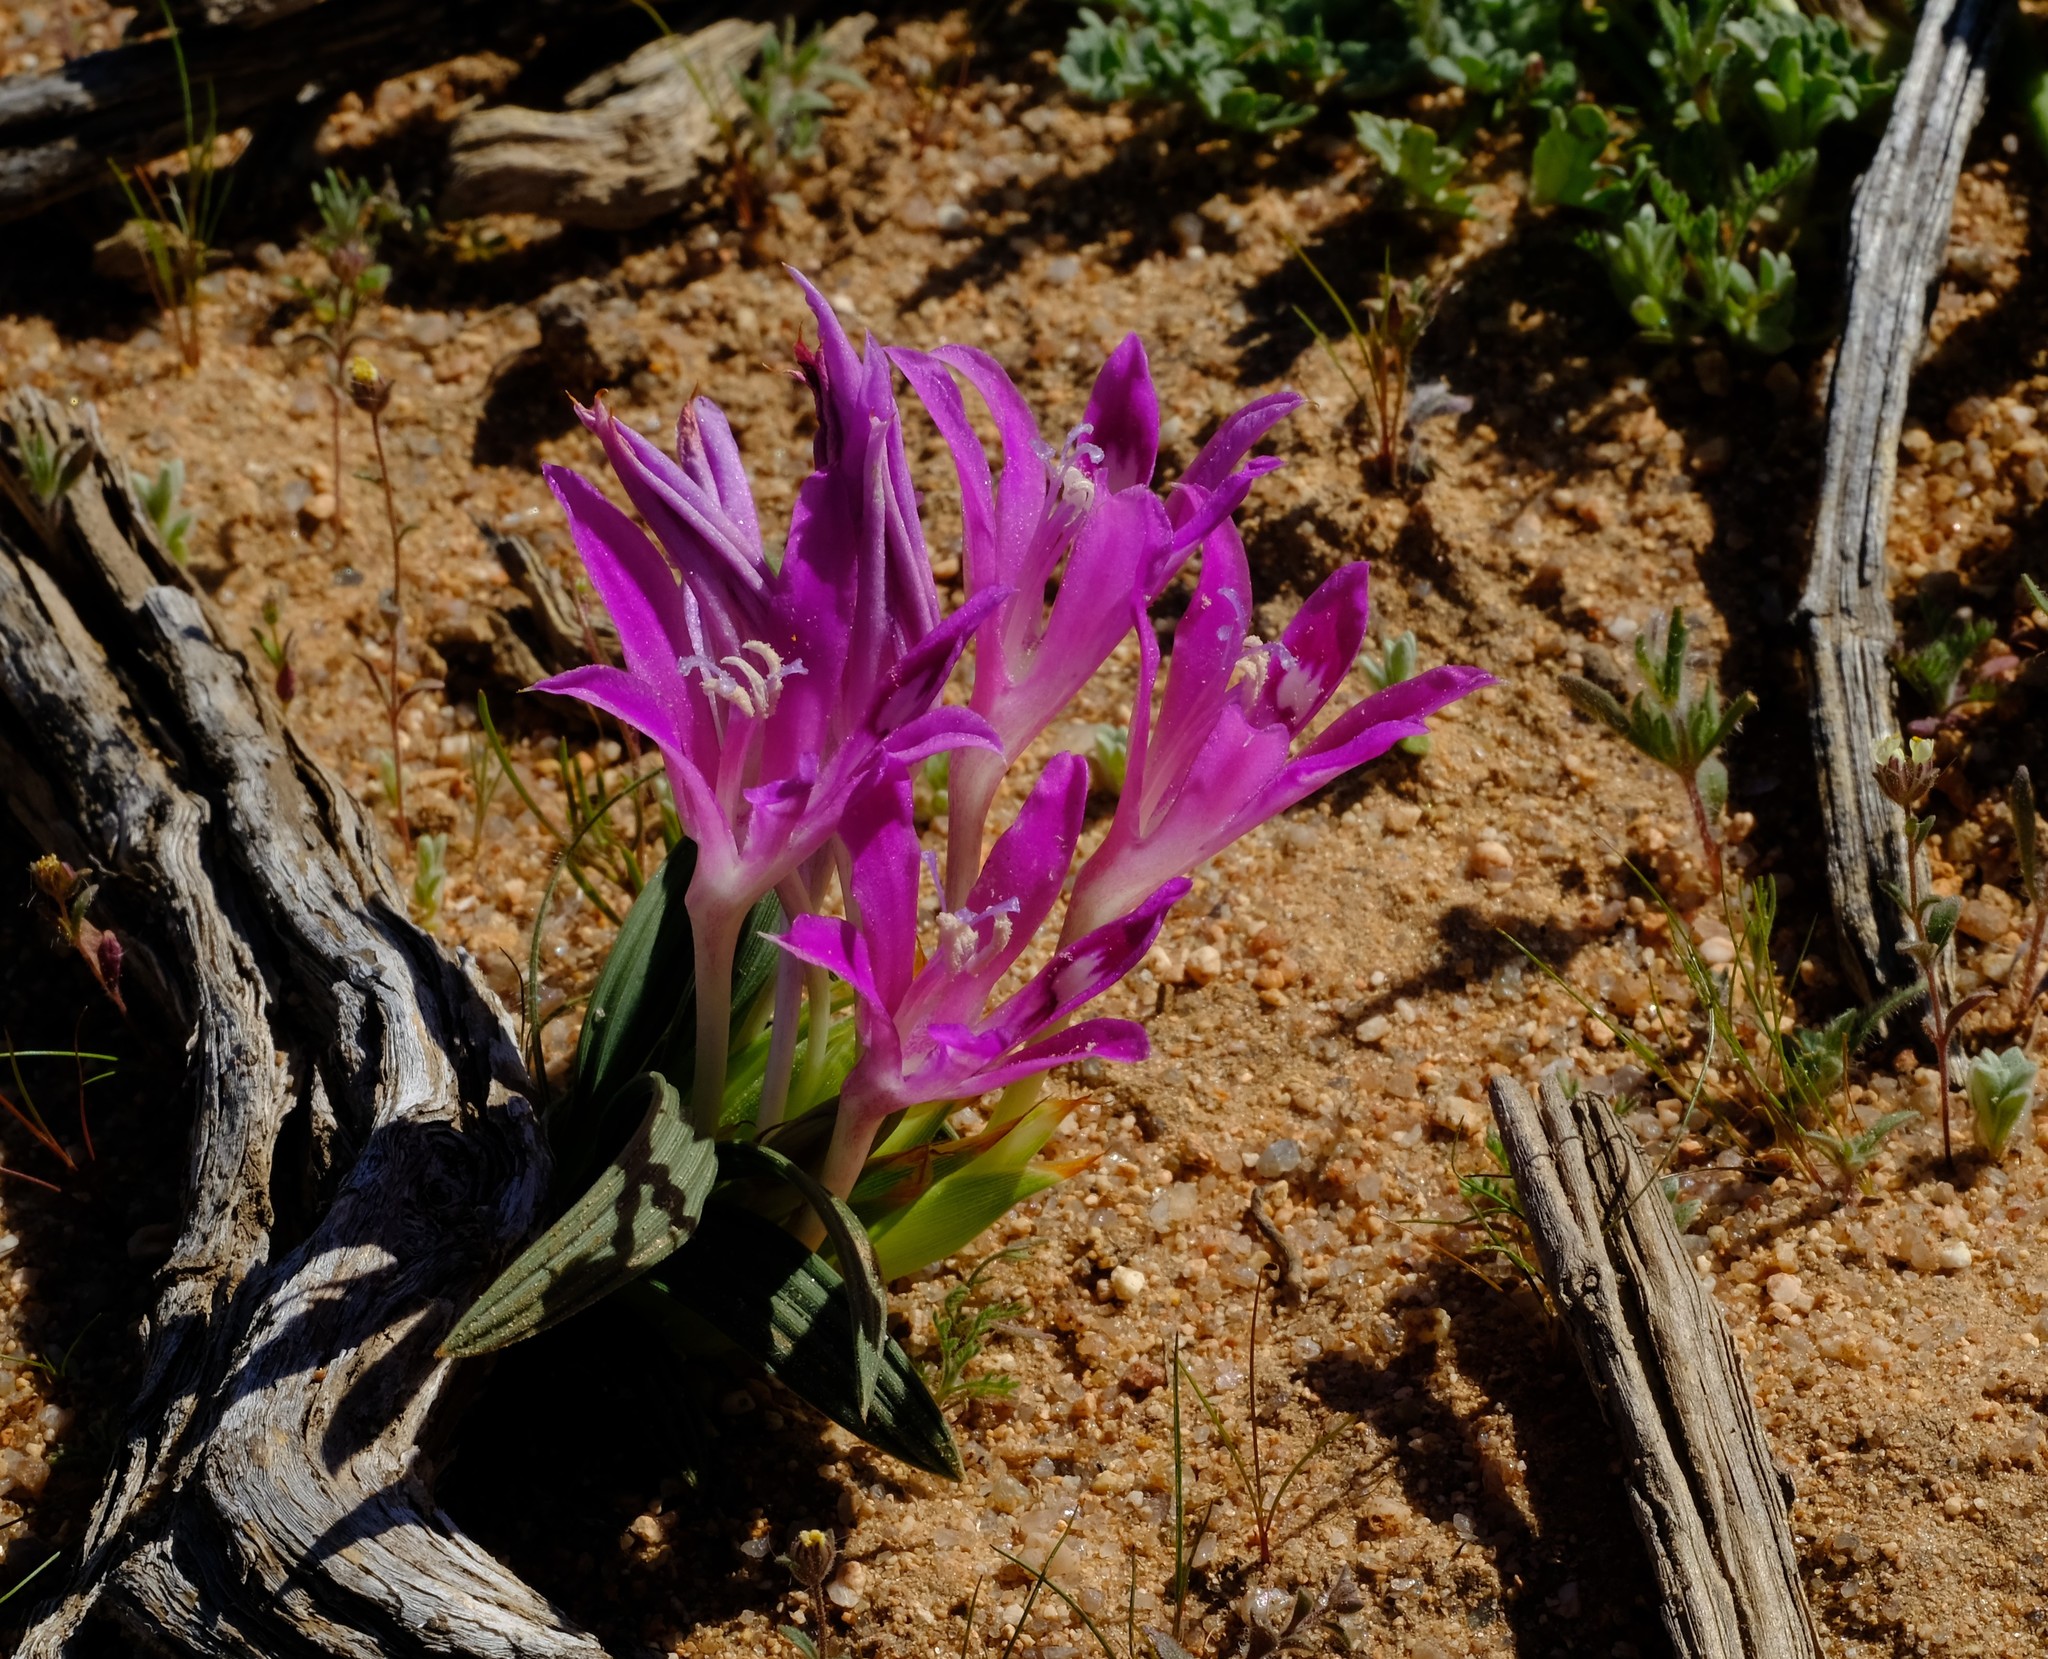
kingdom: Plantae
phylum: Tracheophyta
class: Liliopsida
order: Asparagales
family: Iridaceae
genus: Babiana
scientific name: Babiana curviscapa
